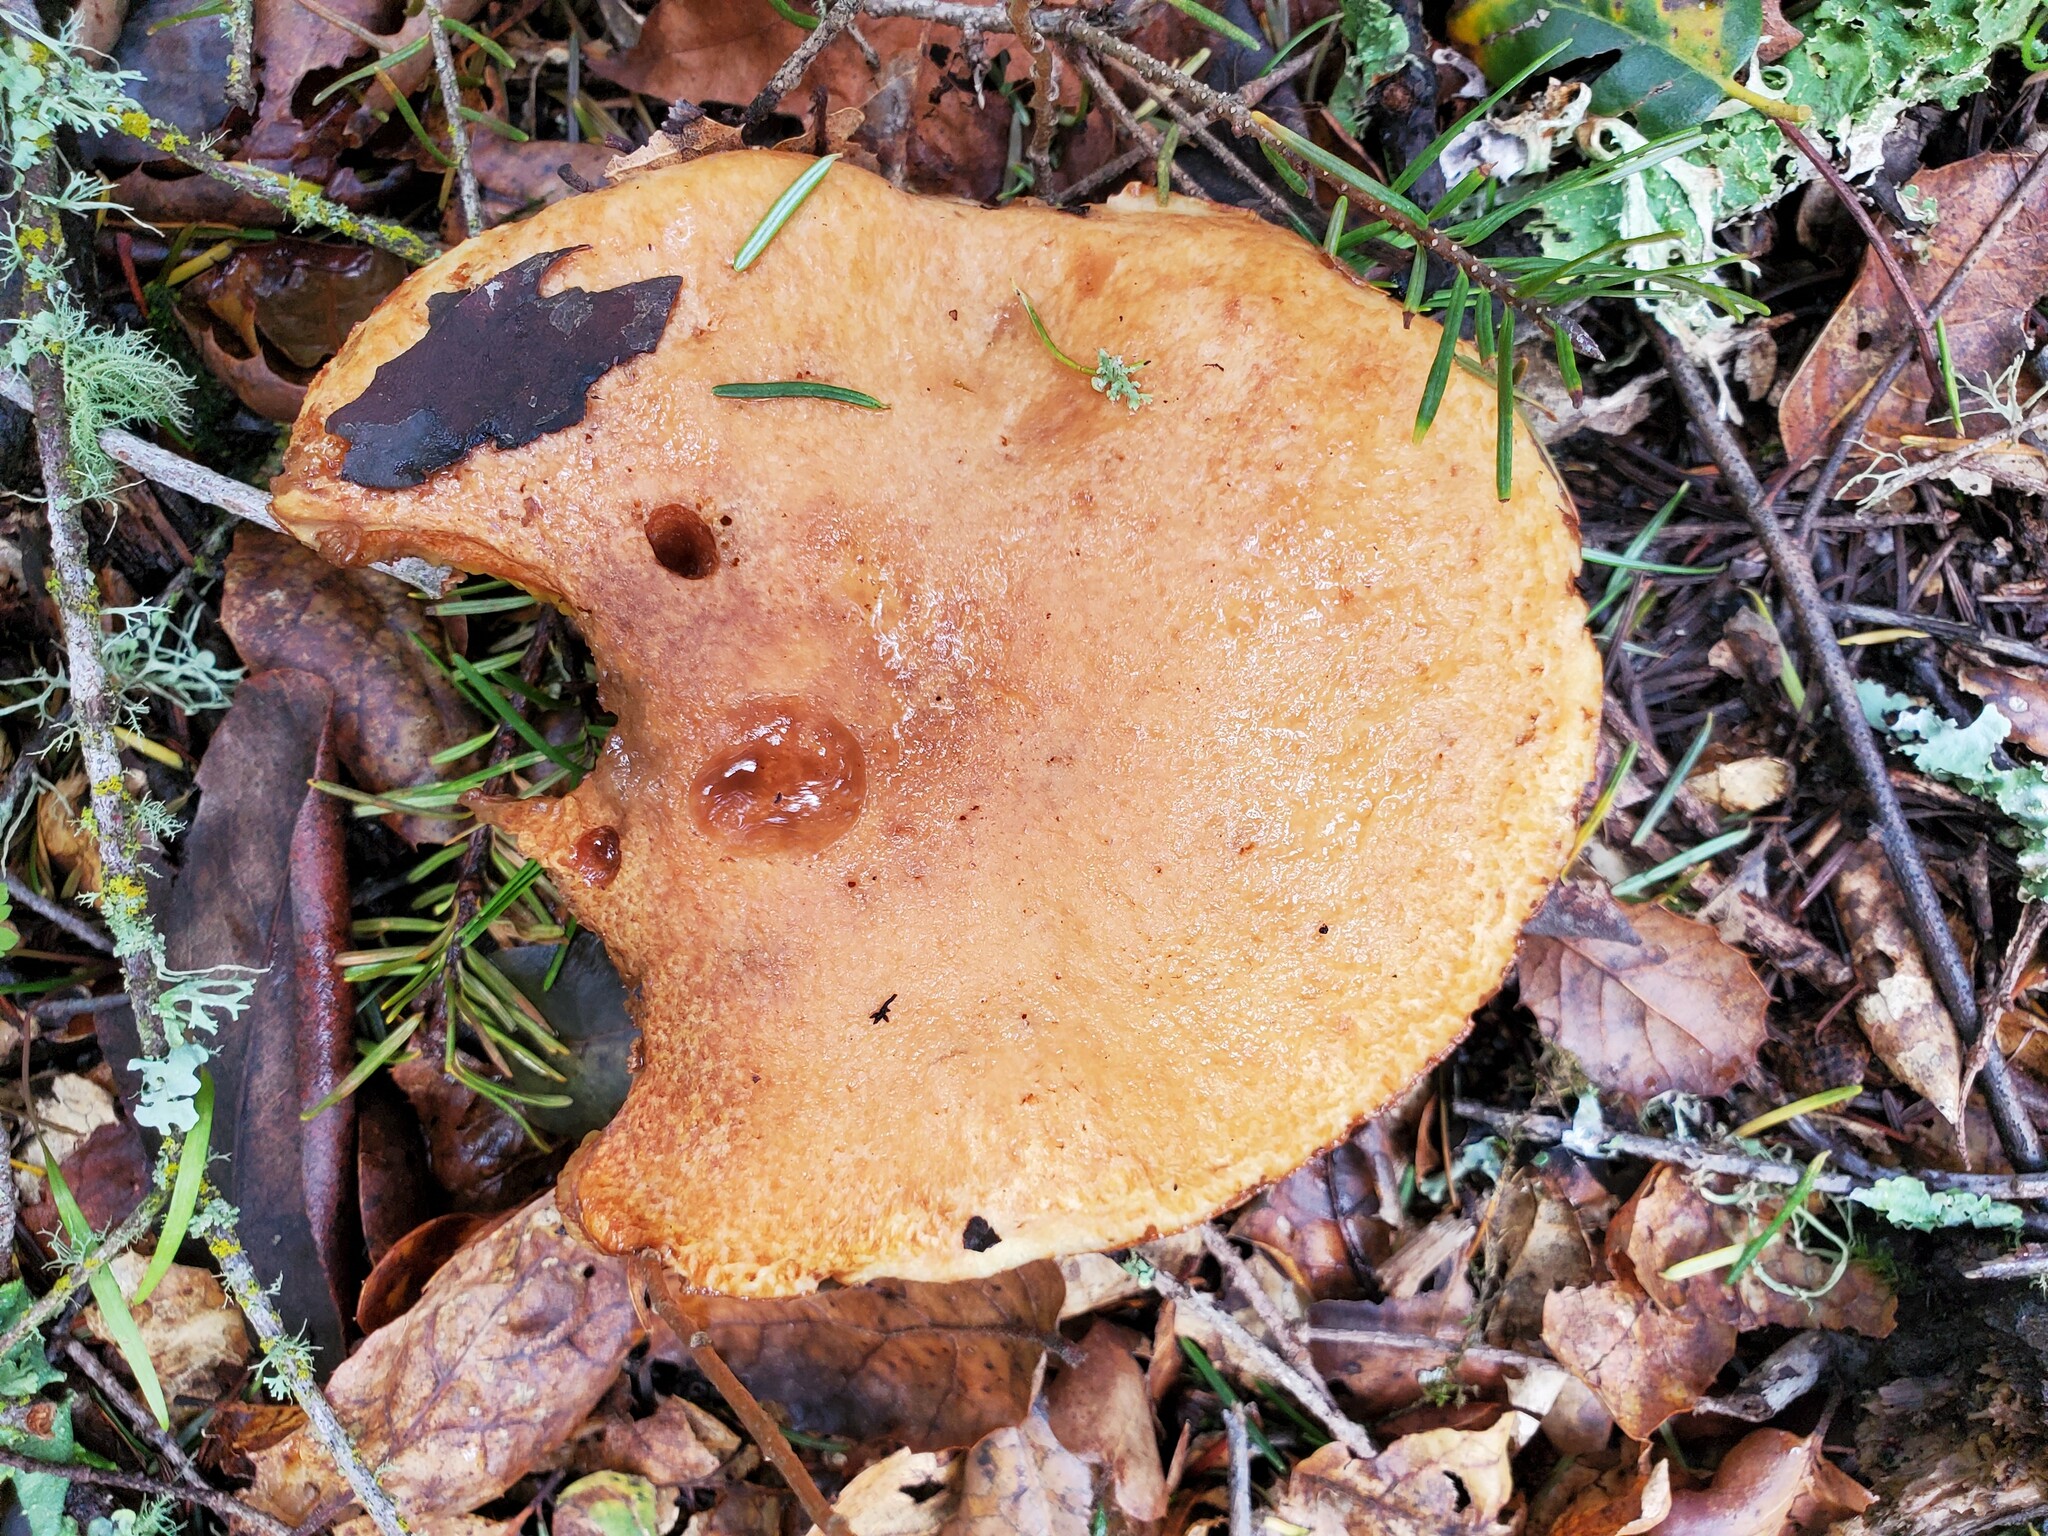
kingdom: Fungi
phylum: Basidiomycota
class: Agaricomycetes
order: Boletales
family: Suillaceae
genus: Suillus
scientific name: Suillus caerulescens
